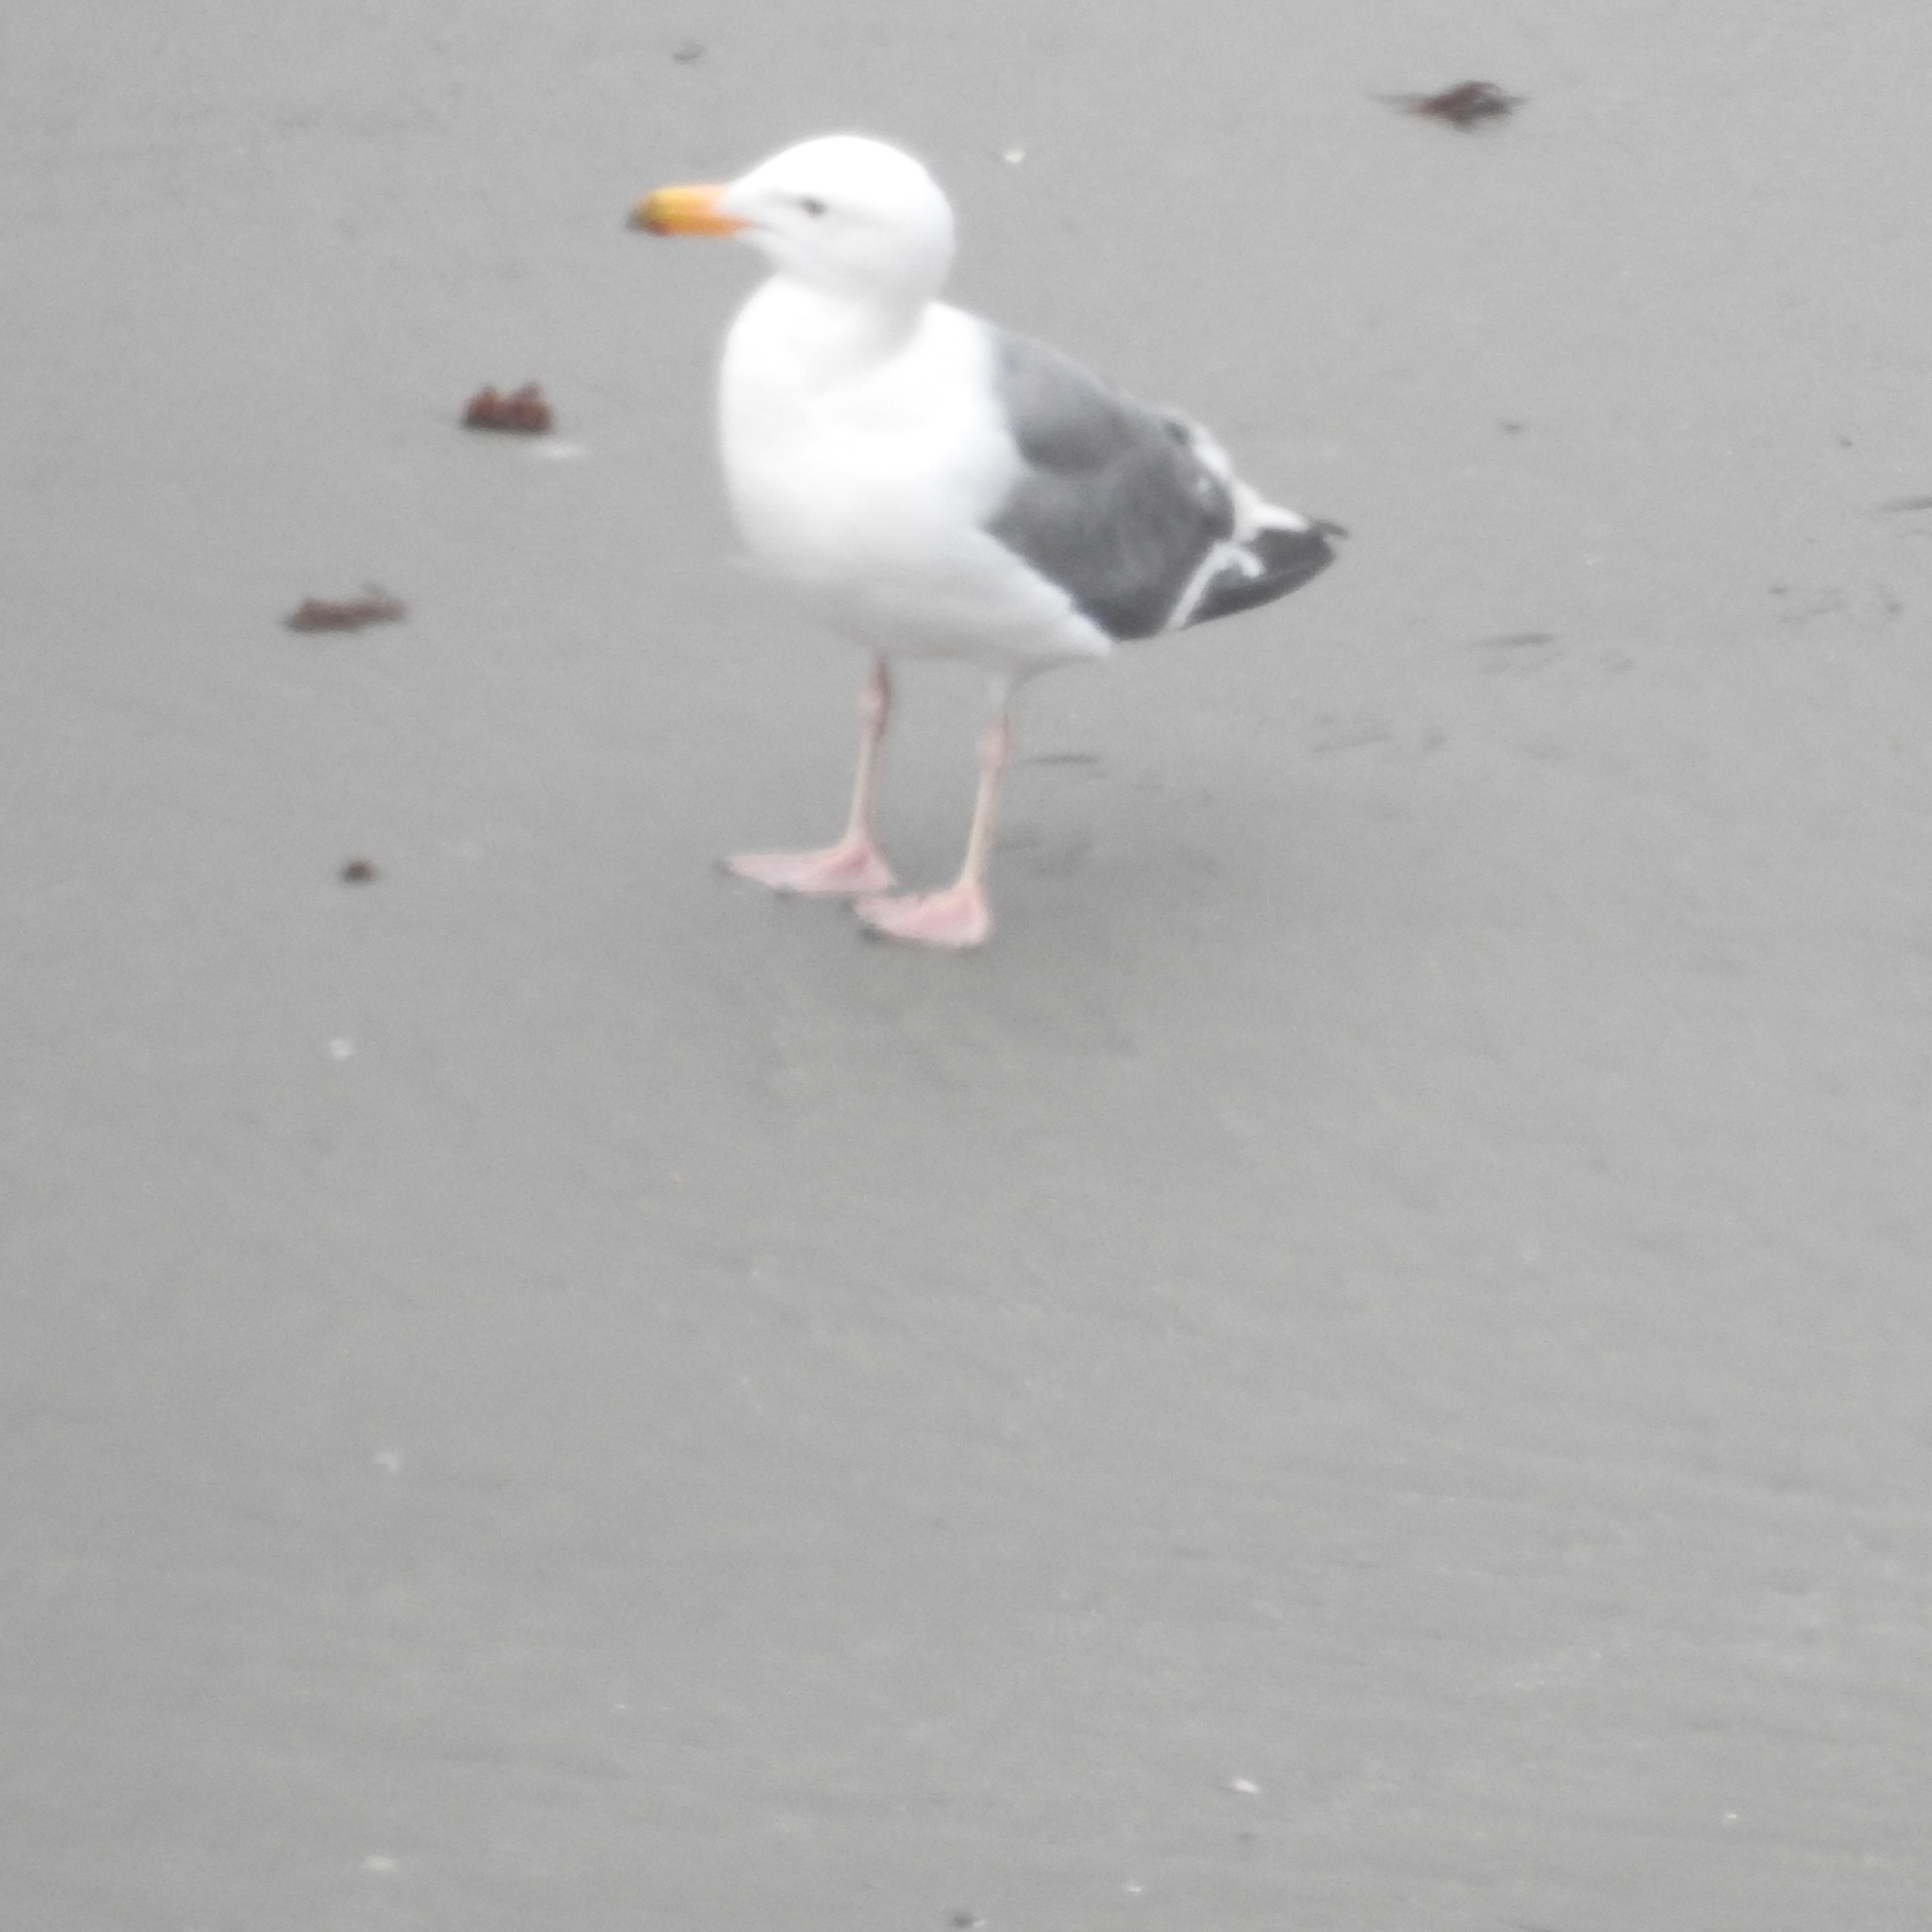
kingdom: Animalia
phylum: Chordata
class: Aves
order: Charadriiformes
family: Laridae
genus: Larus
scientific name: Larus occidentalis
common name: Western gull
